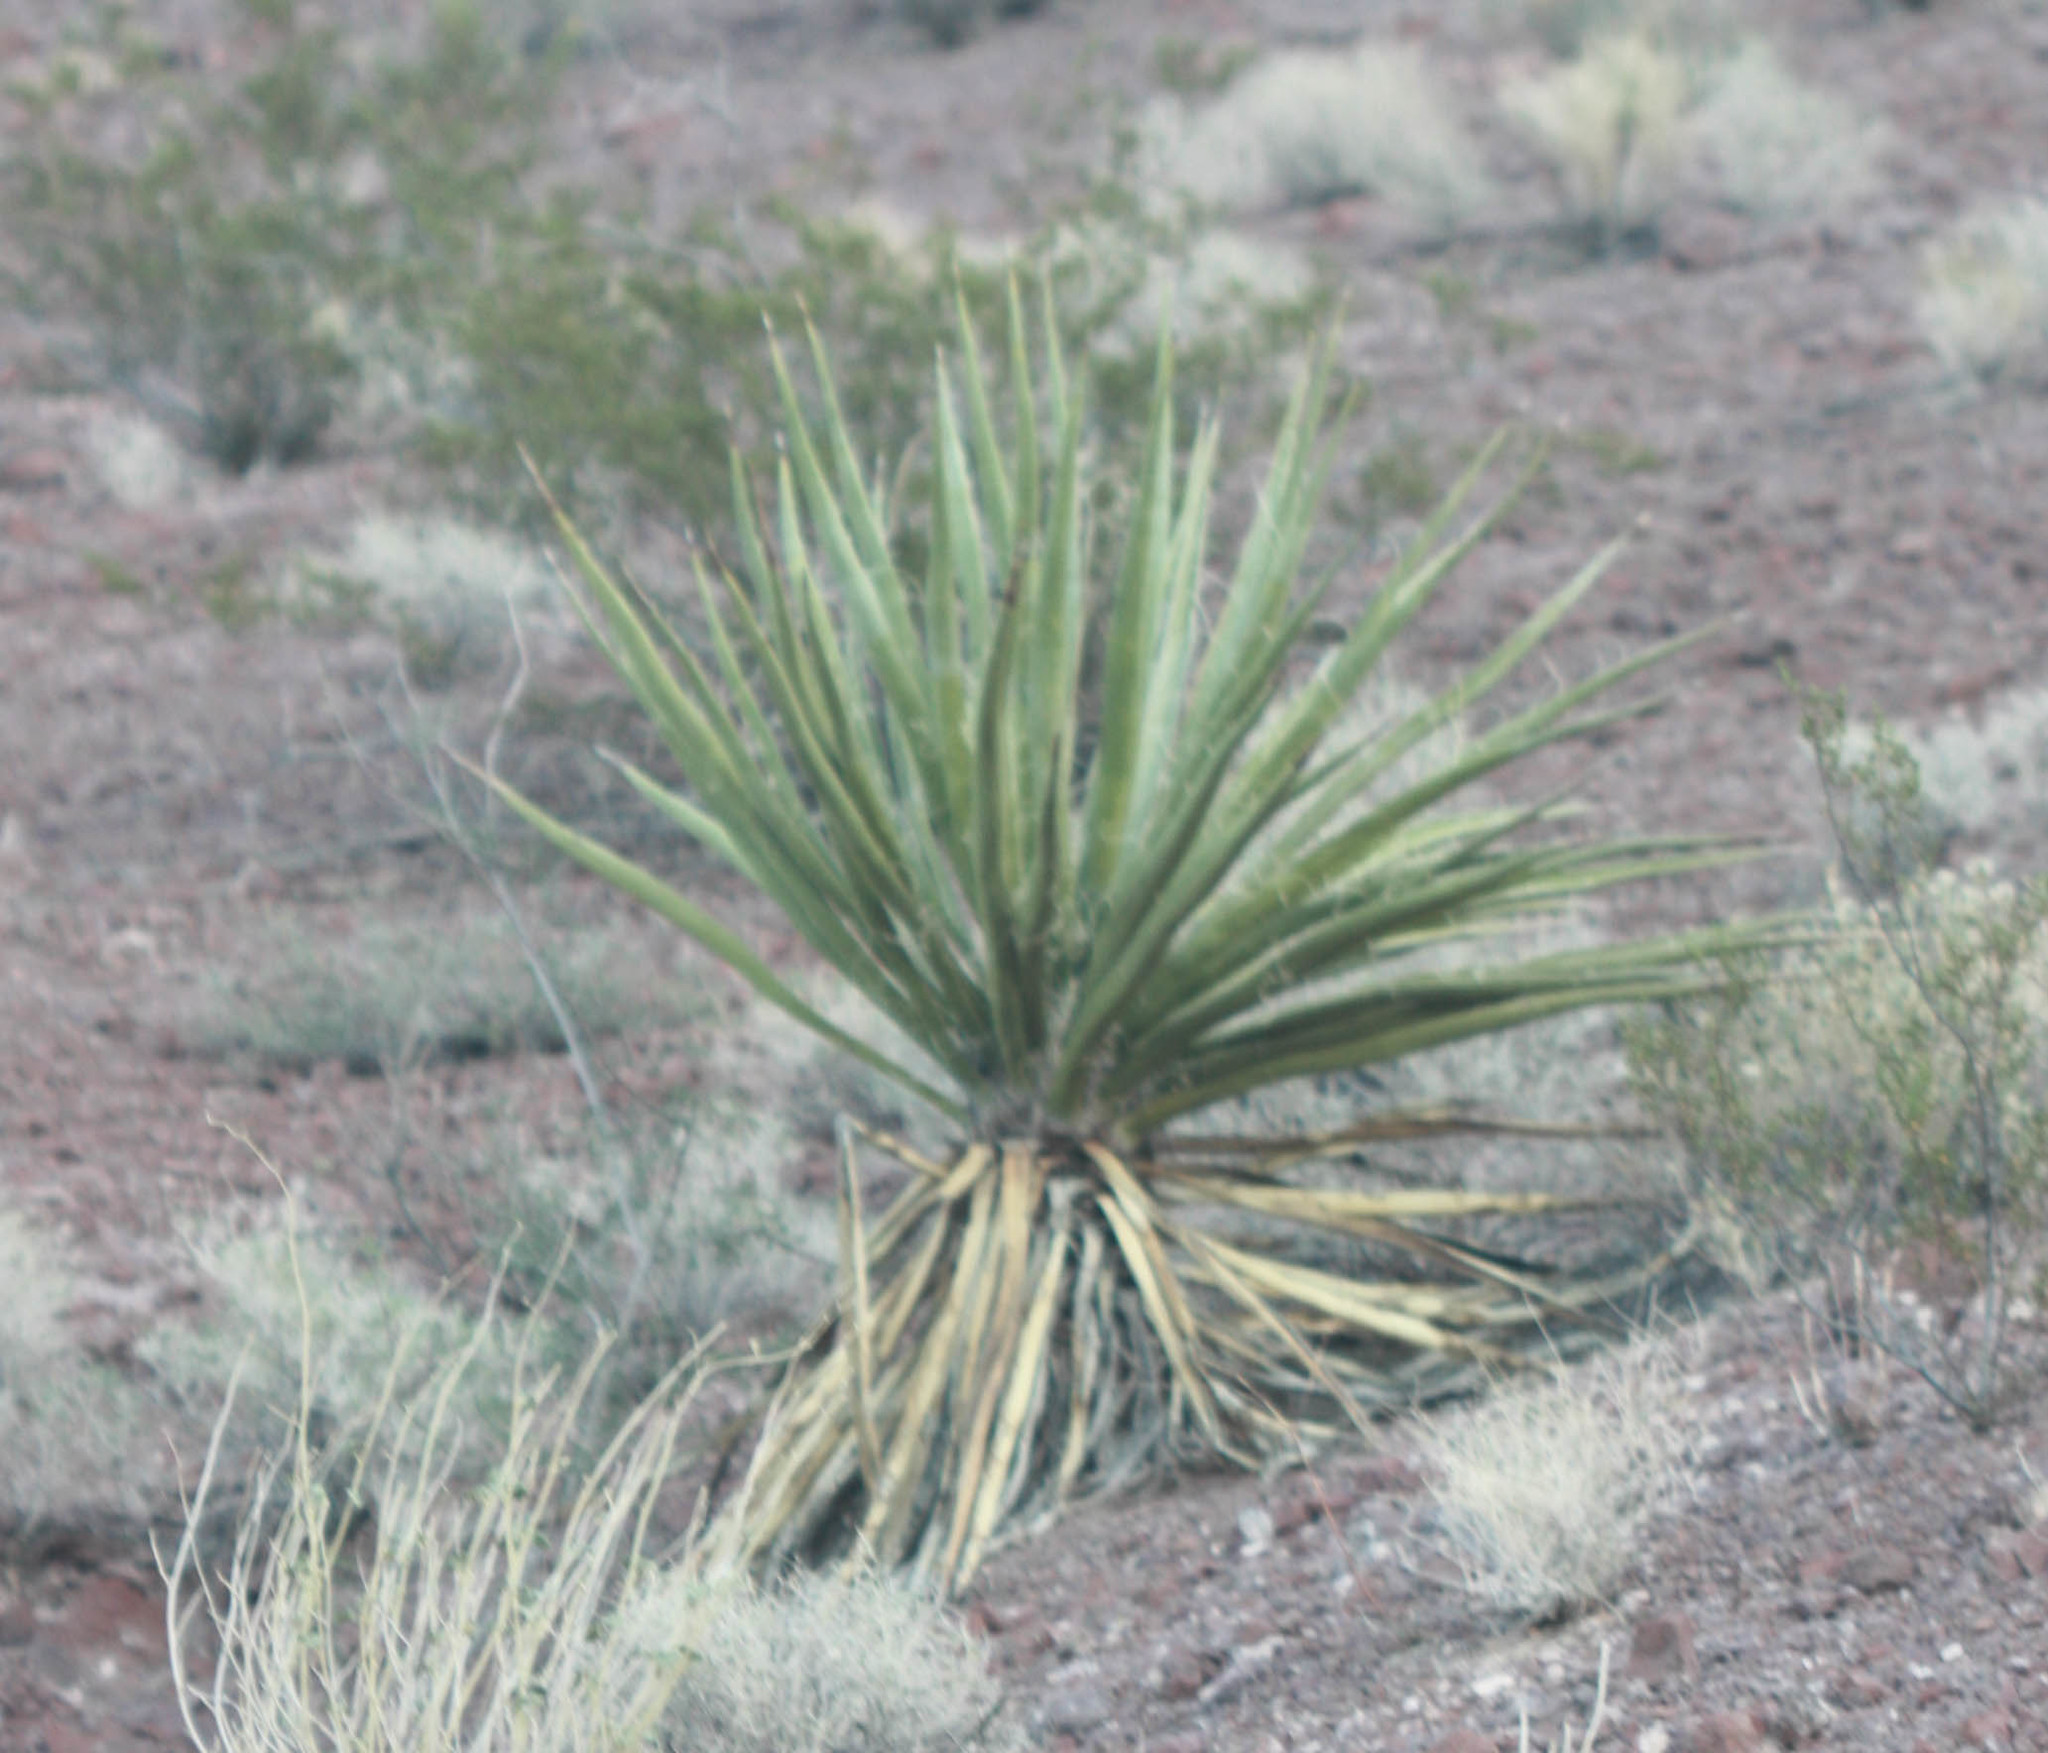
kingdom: Plantae
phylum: Tracheophyta
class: Liliopsida
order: Asparagales
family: Asparagaceae
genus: Yucca
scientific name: Yucca schidigera
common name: Mojave yucca
